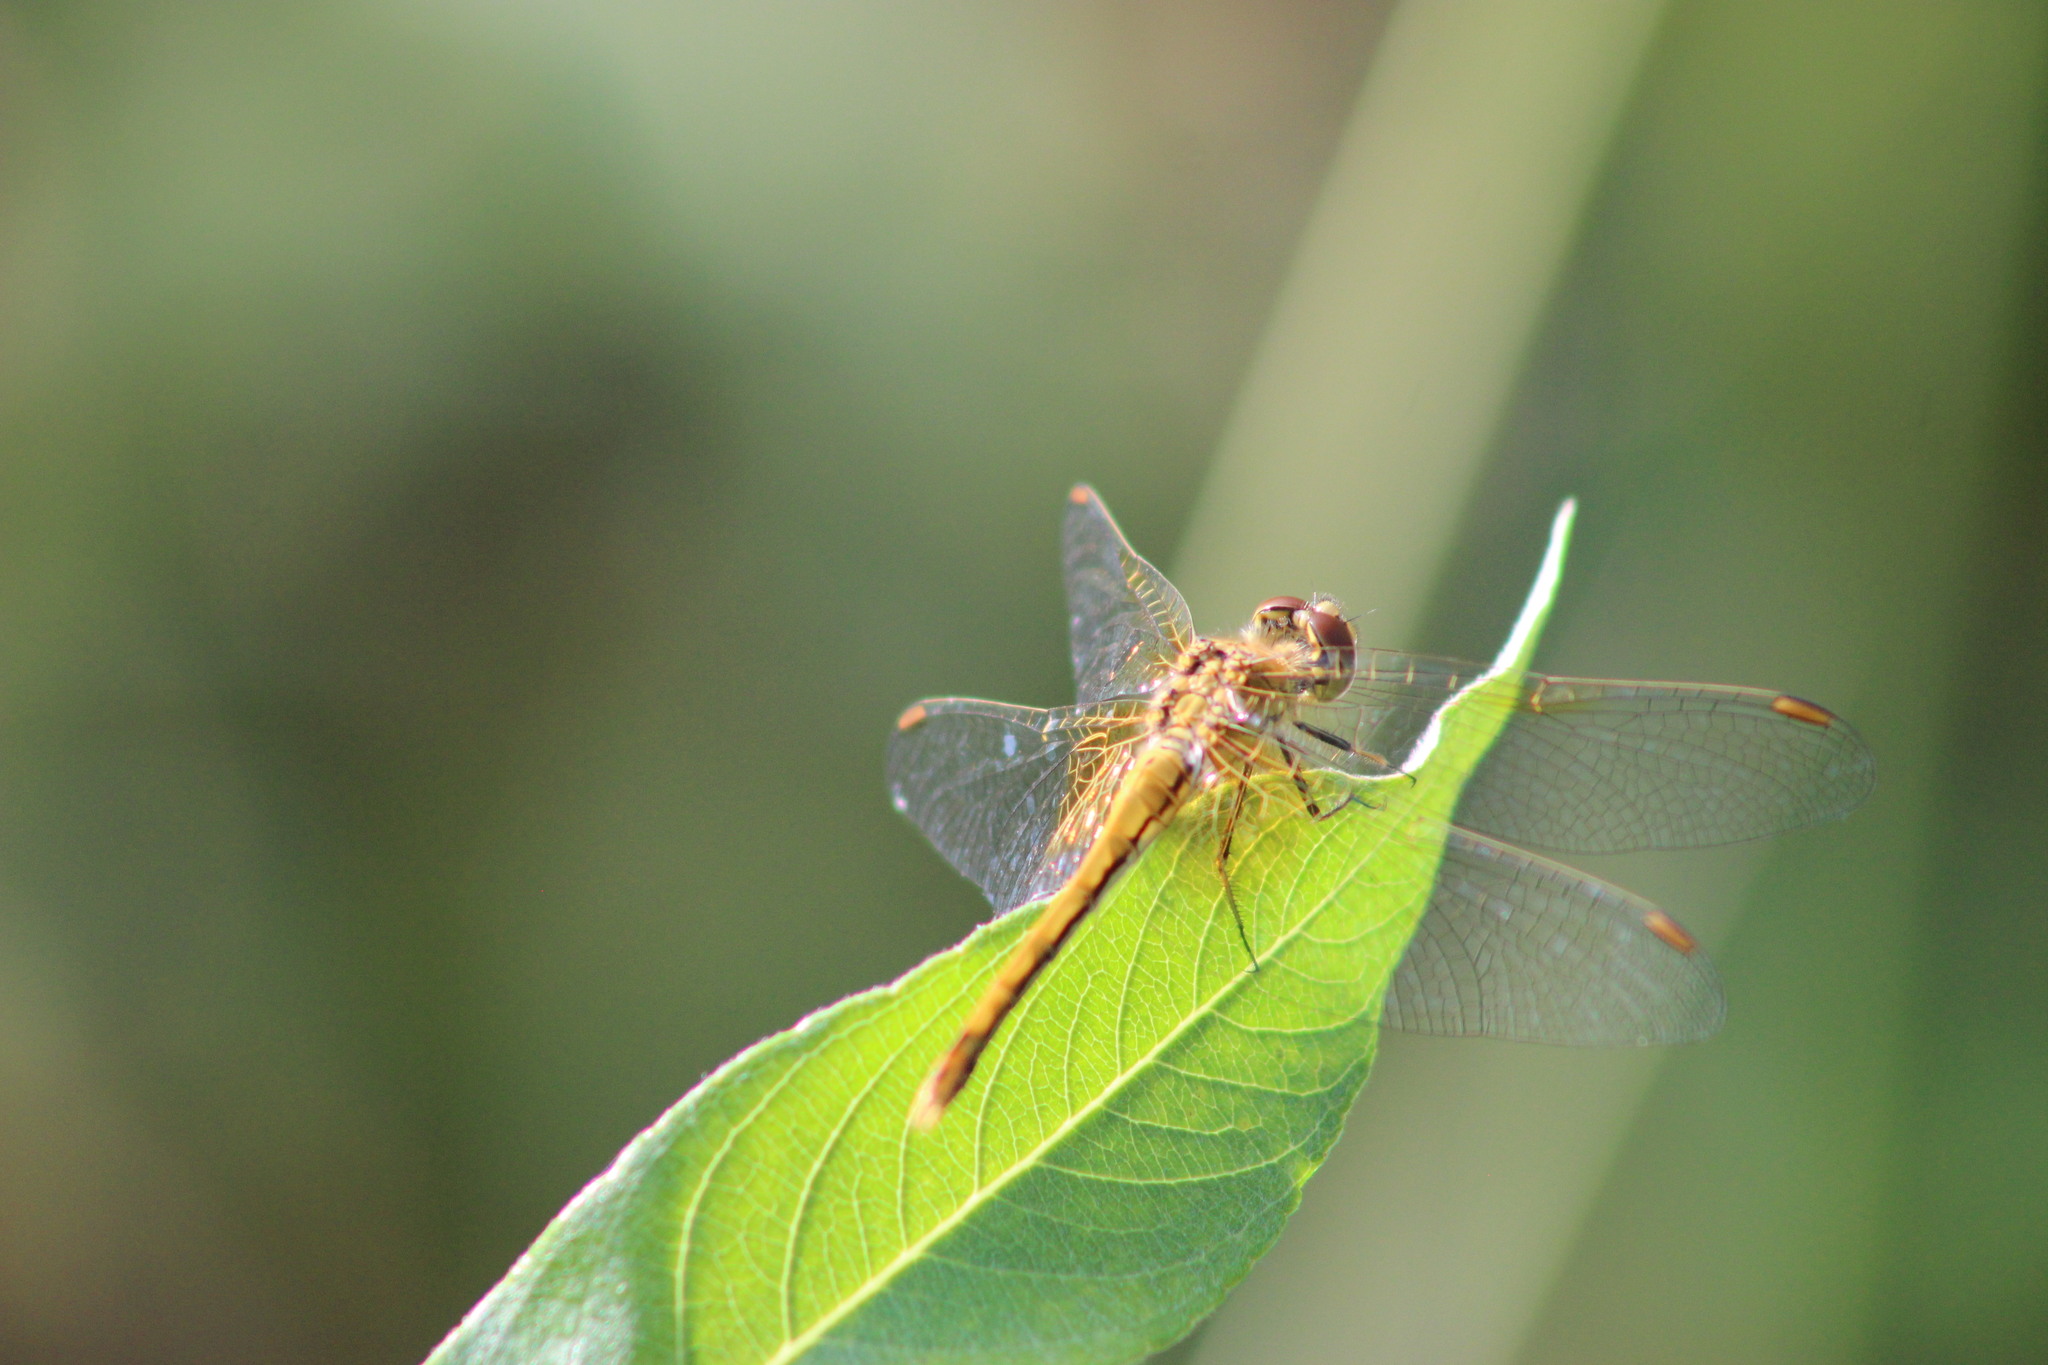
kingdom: Animalia
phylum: Arthropoda
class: Insecta
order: Odonata
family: Libellulidae
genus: Sympetrum
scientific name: Sympetrum flaveolum
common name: Yellow-winged darter
